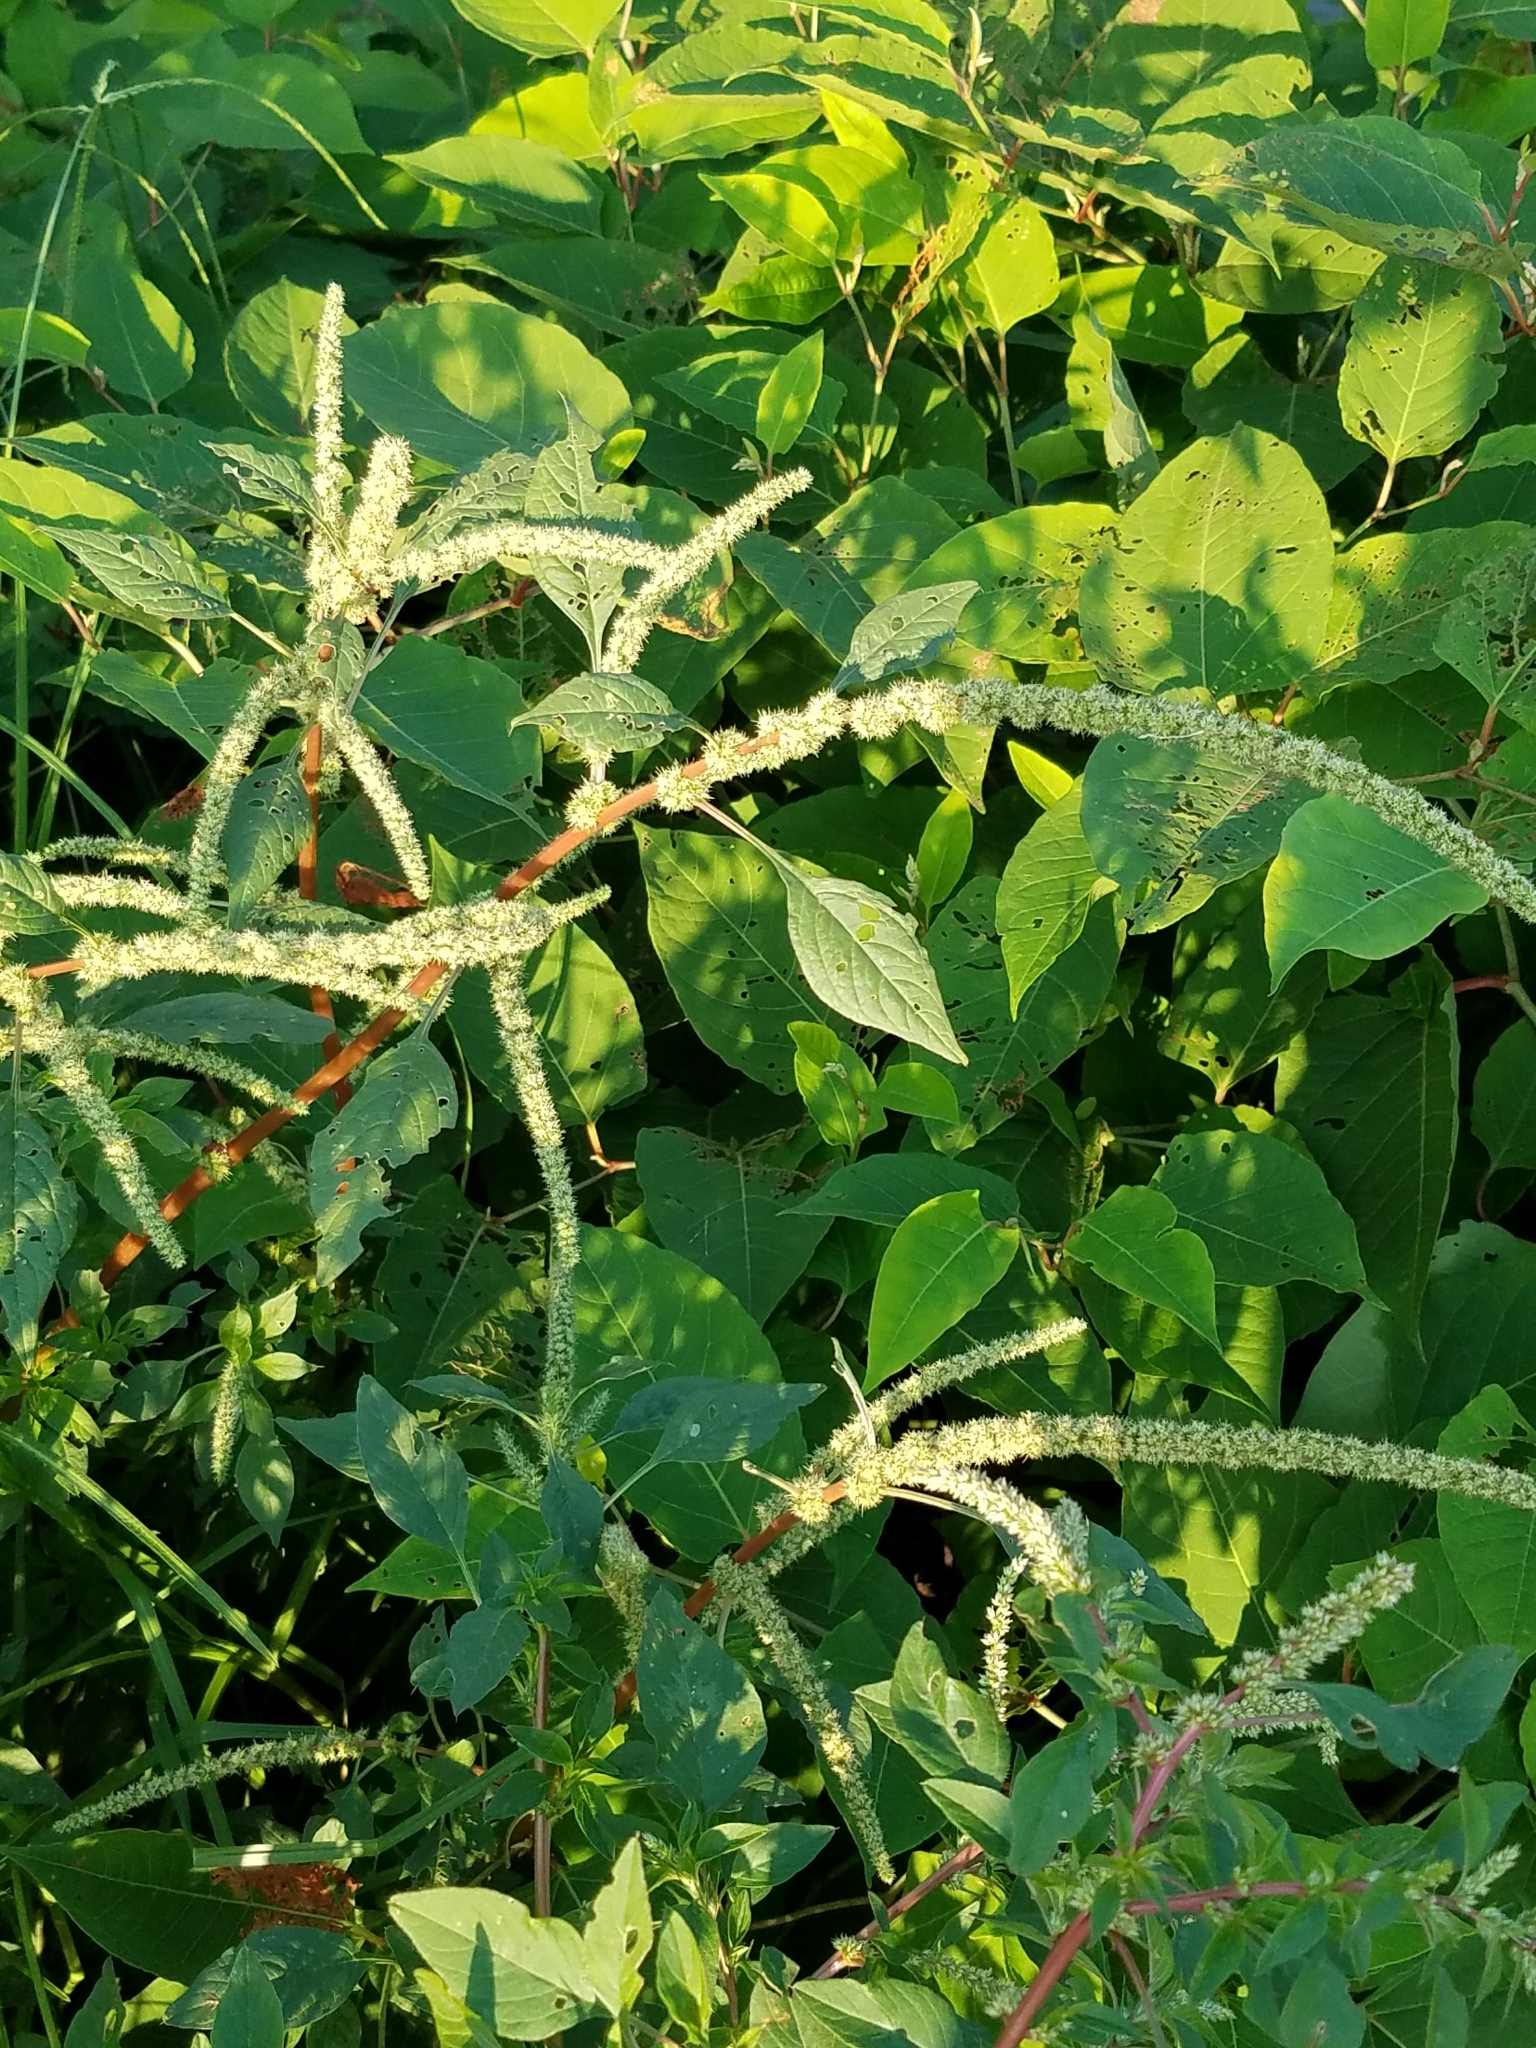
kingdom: Plantae
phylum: Tracheophyta
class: Magnoliopsida
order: Caryophyllales
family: Amaranthaceae
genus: Amaranthus
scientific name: Amaranthus tuberculatus
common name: Rough-fruit amaranth
